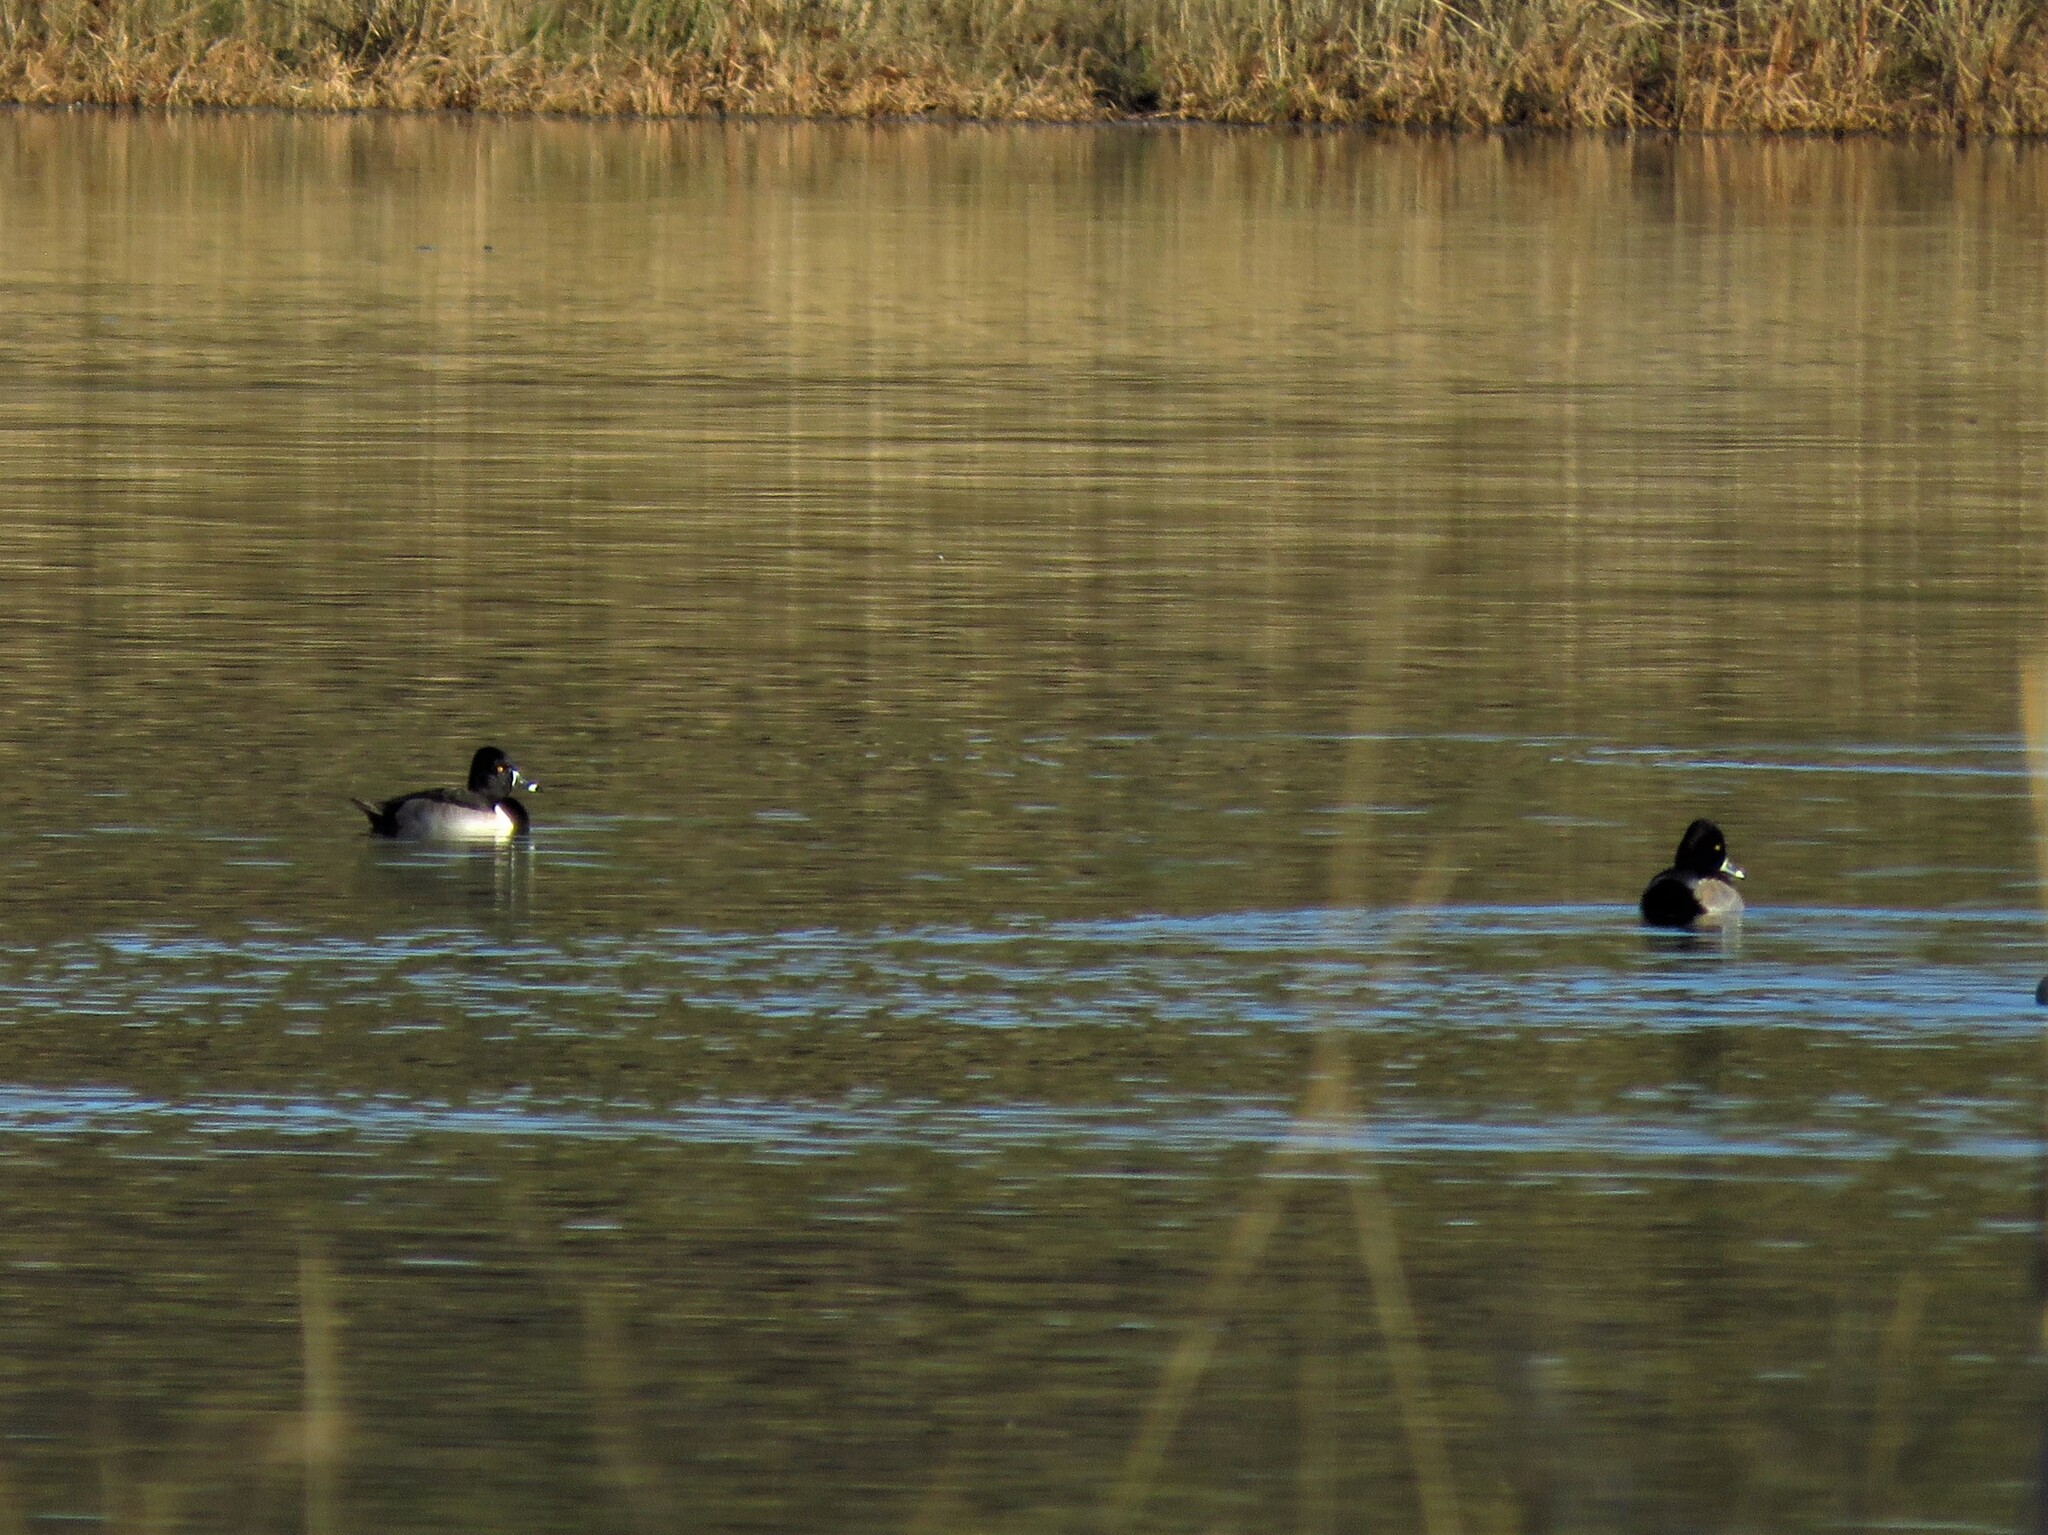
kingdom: Animalia
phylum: Chordata
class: Aves
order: Anseriformes
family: Anatidae
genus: Aythya
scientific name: Aythya collaris
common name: Ring-necked duck
